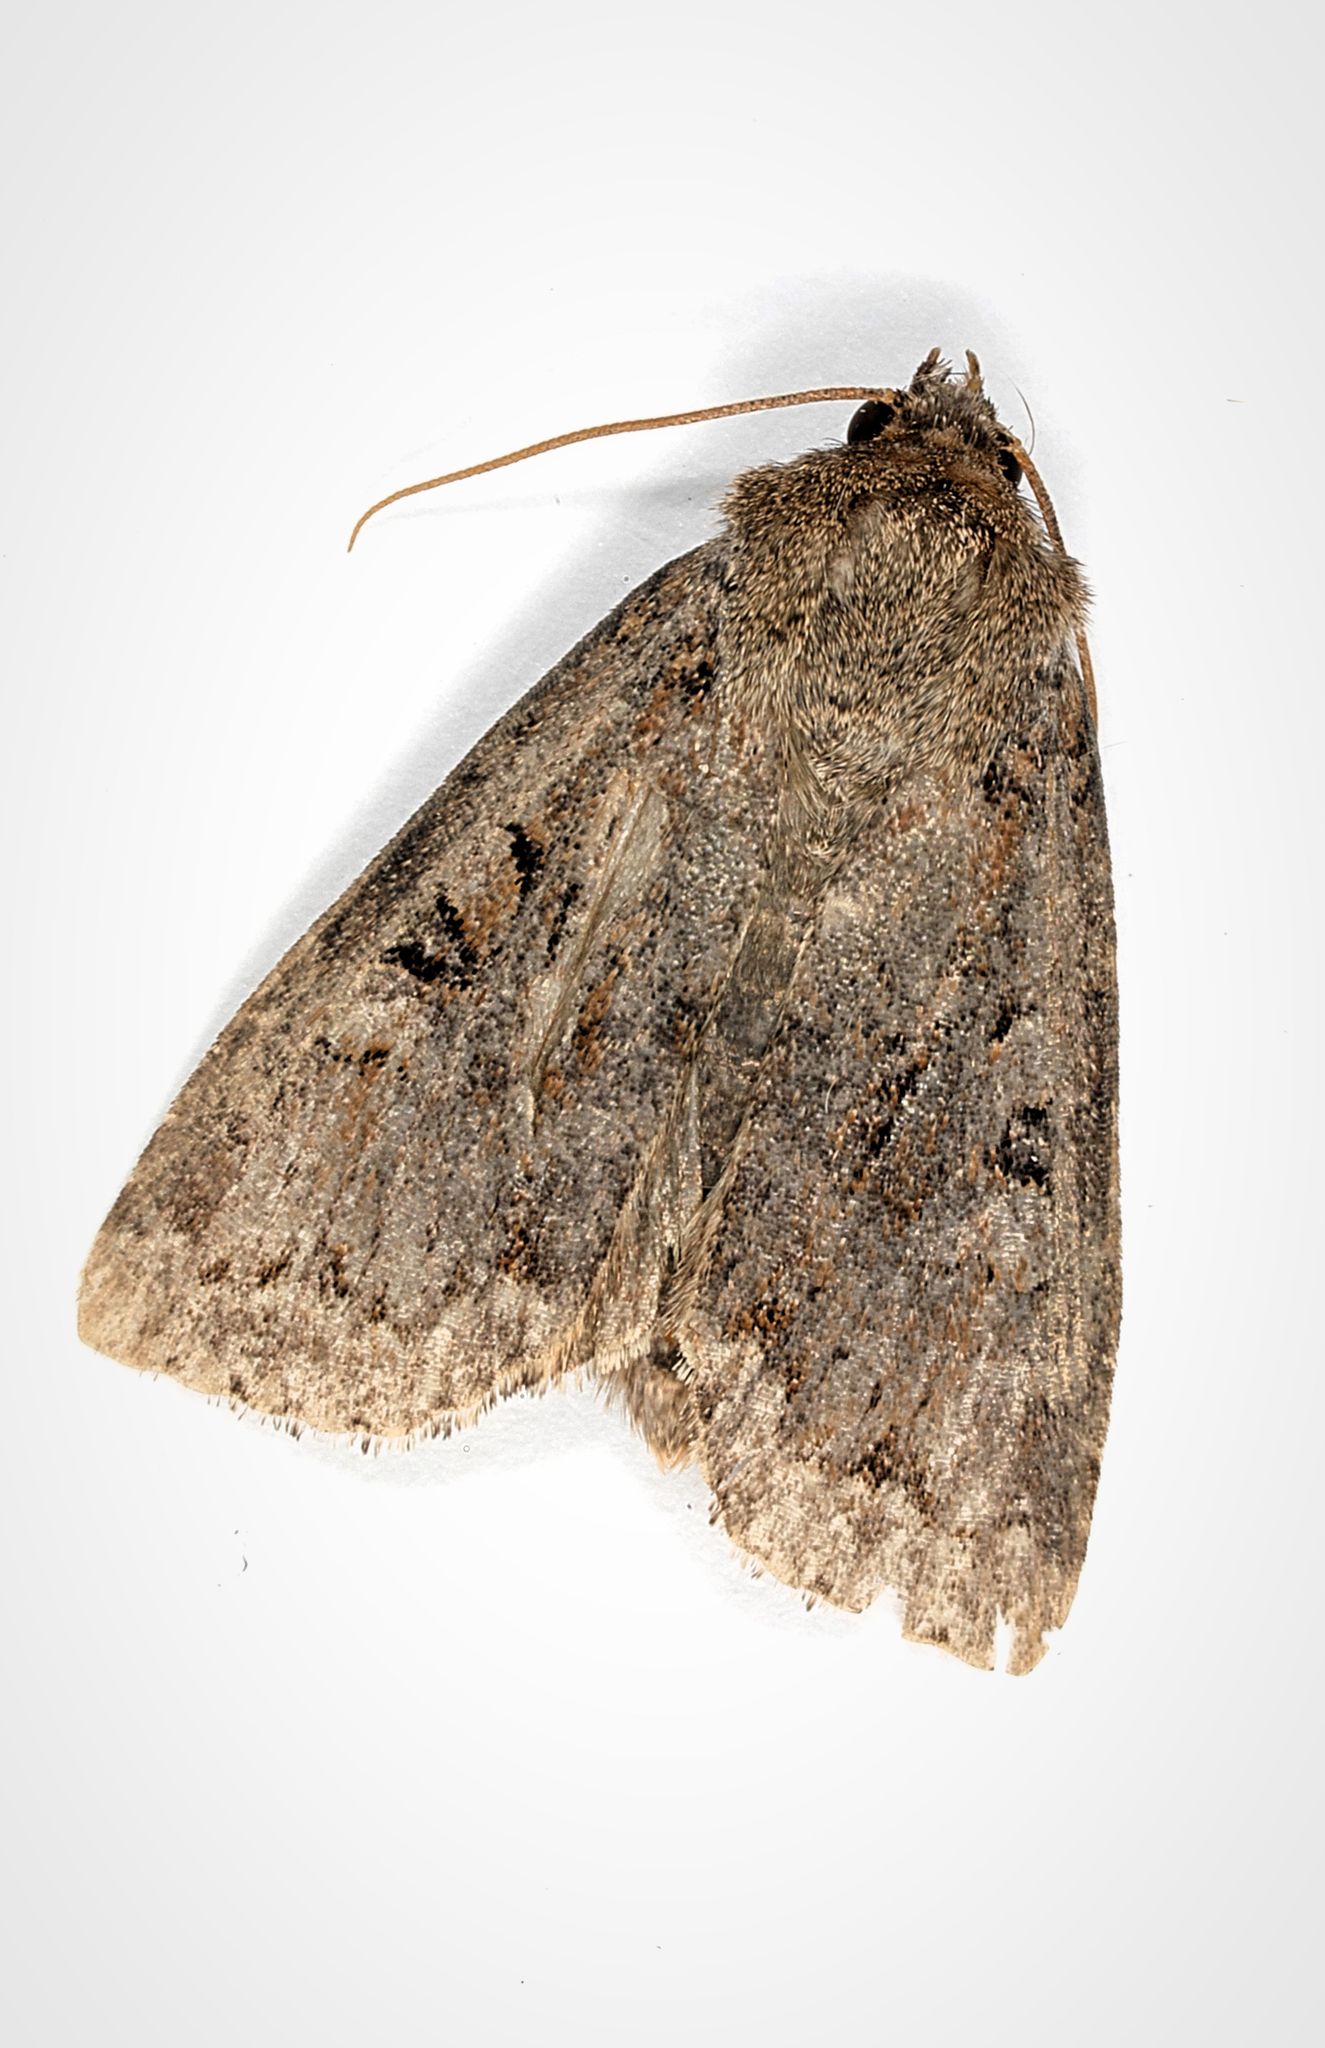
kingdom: Animalia
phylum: Arthropoda
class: Insecta
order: Lepidoptera
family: Noctuidae
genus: Apterogenum
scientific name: Apterogenum ypsillon
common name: Dingy shears
